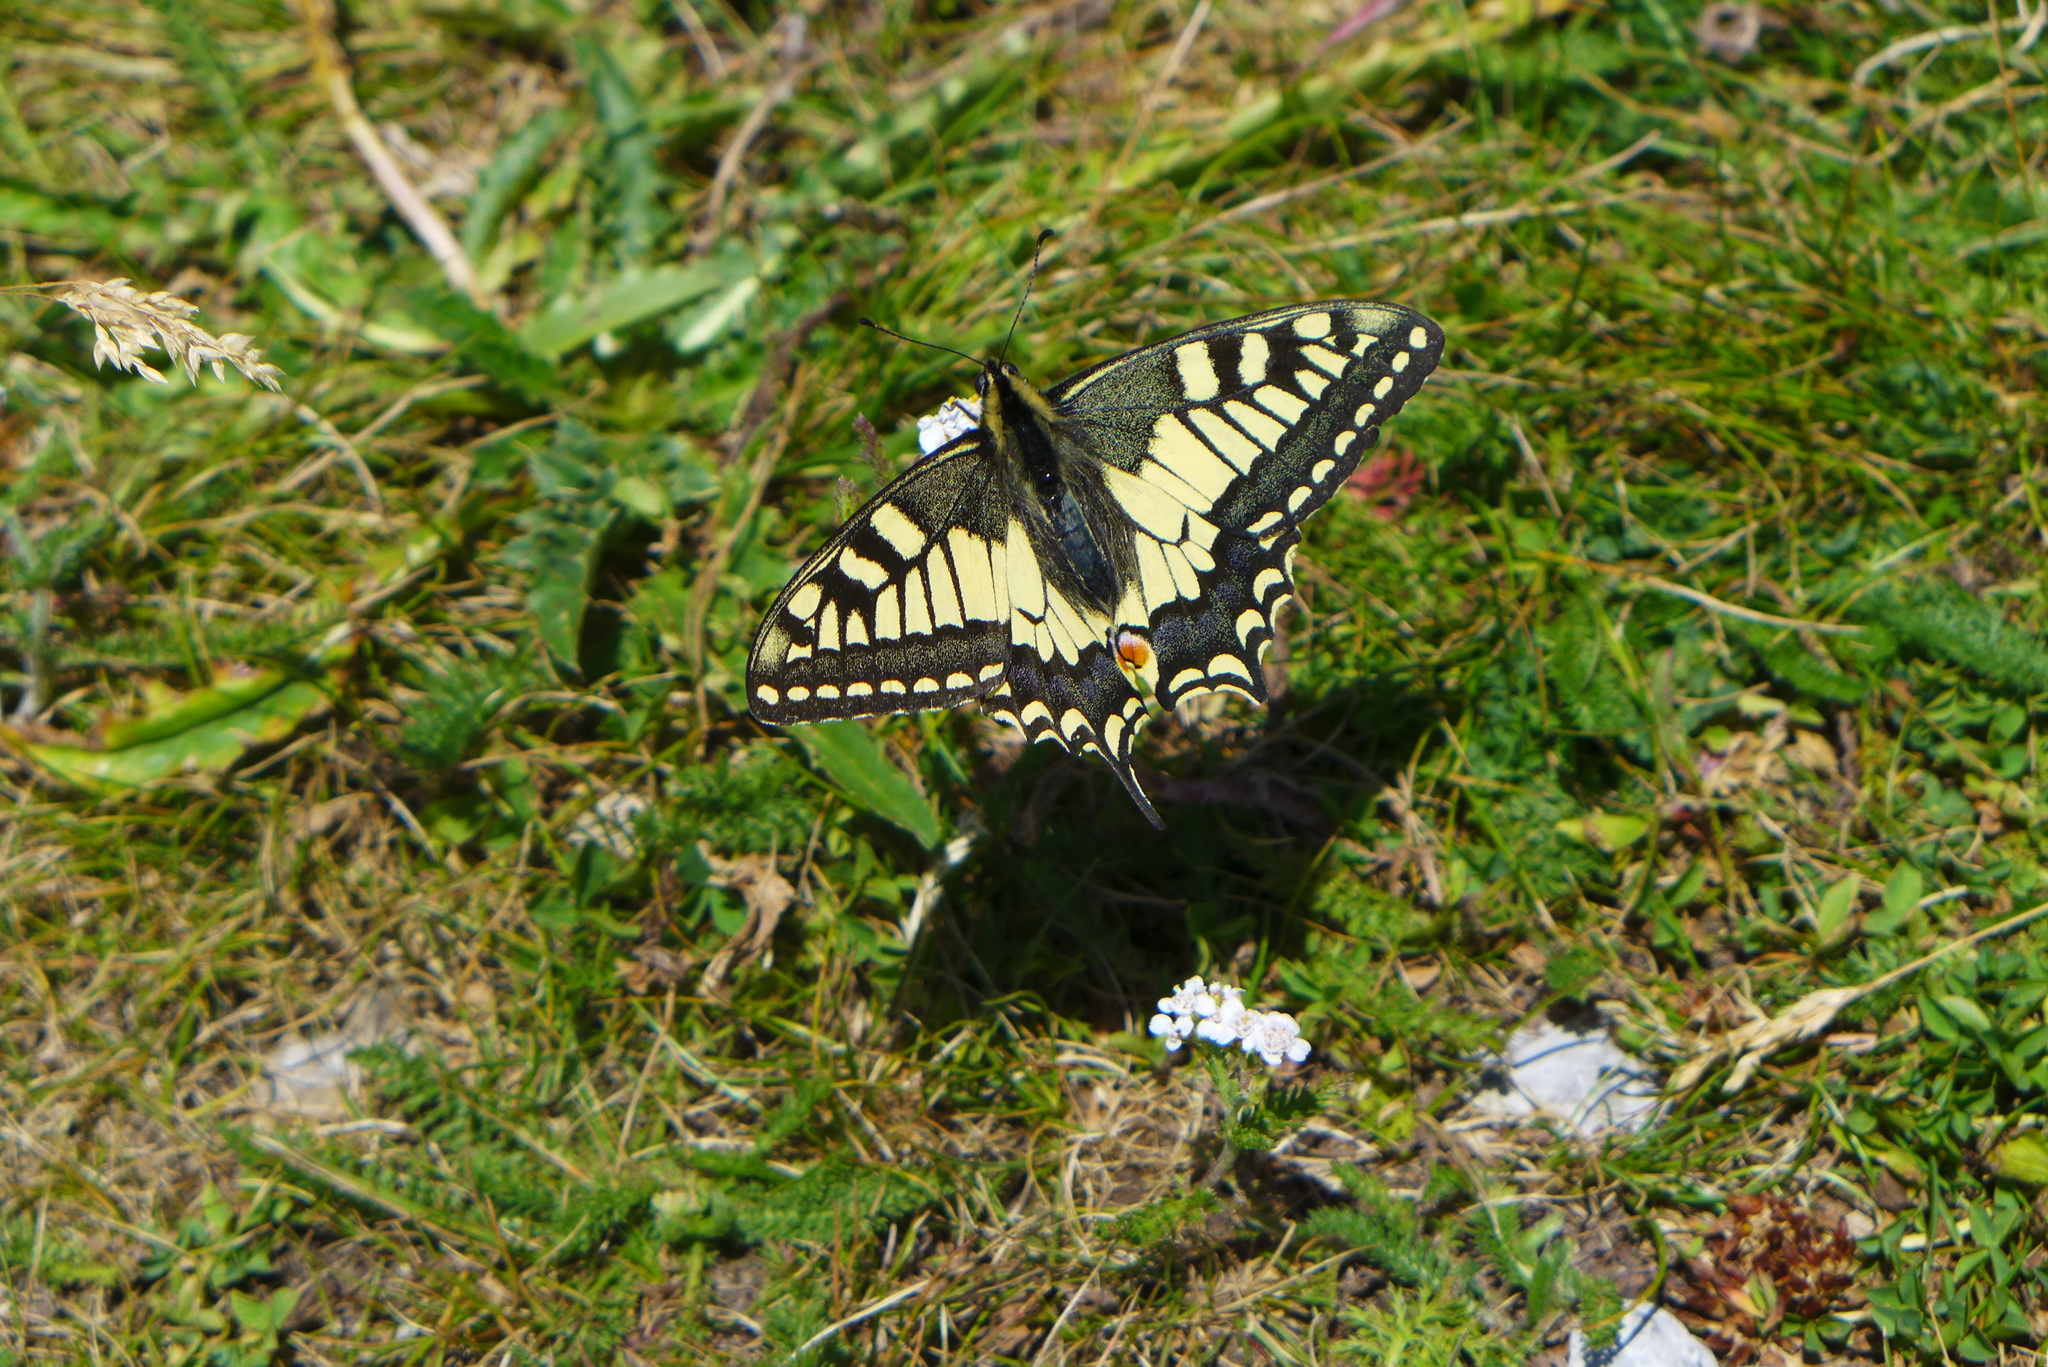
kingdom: Animalia
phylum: Arthropoda
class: Insecta
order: Lepidoptera
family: Papilionidae
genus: Papilio
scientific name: Papilio machaon
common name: Swallowtail
